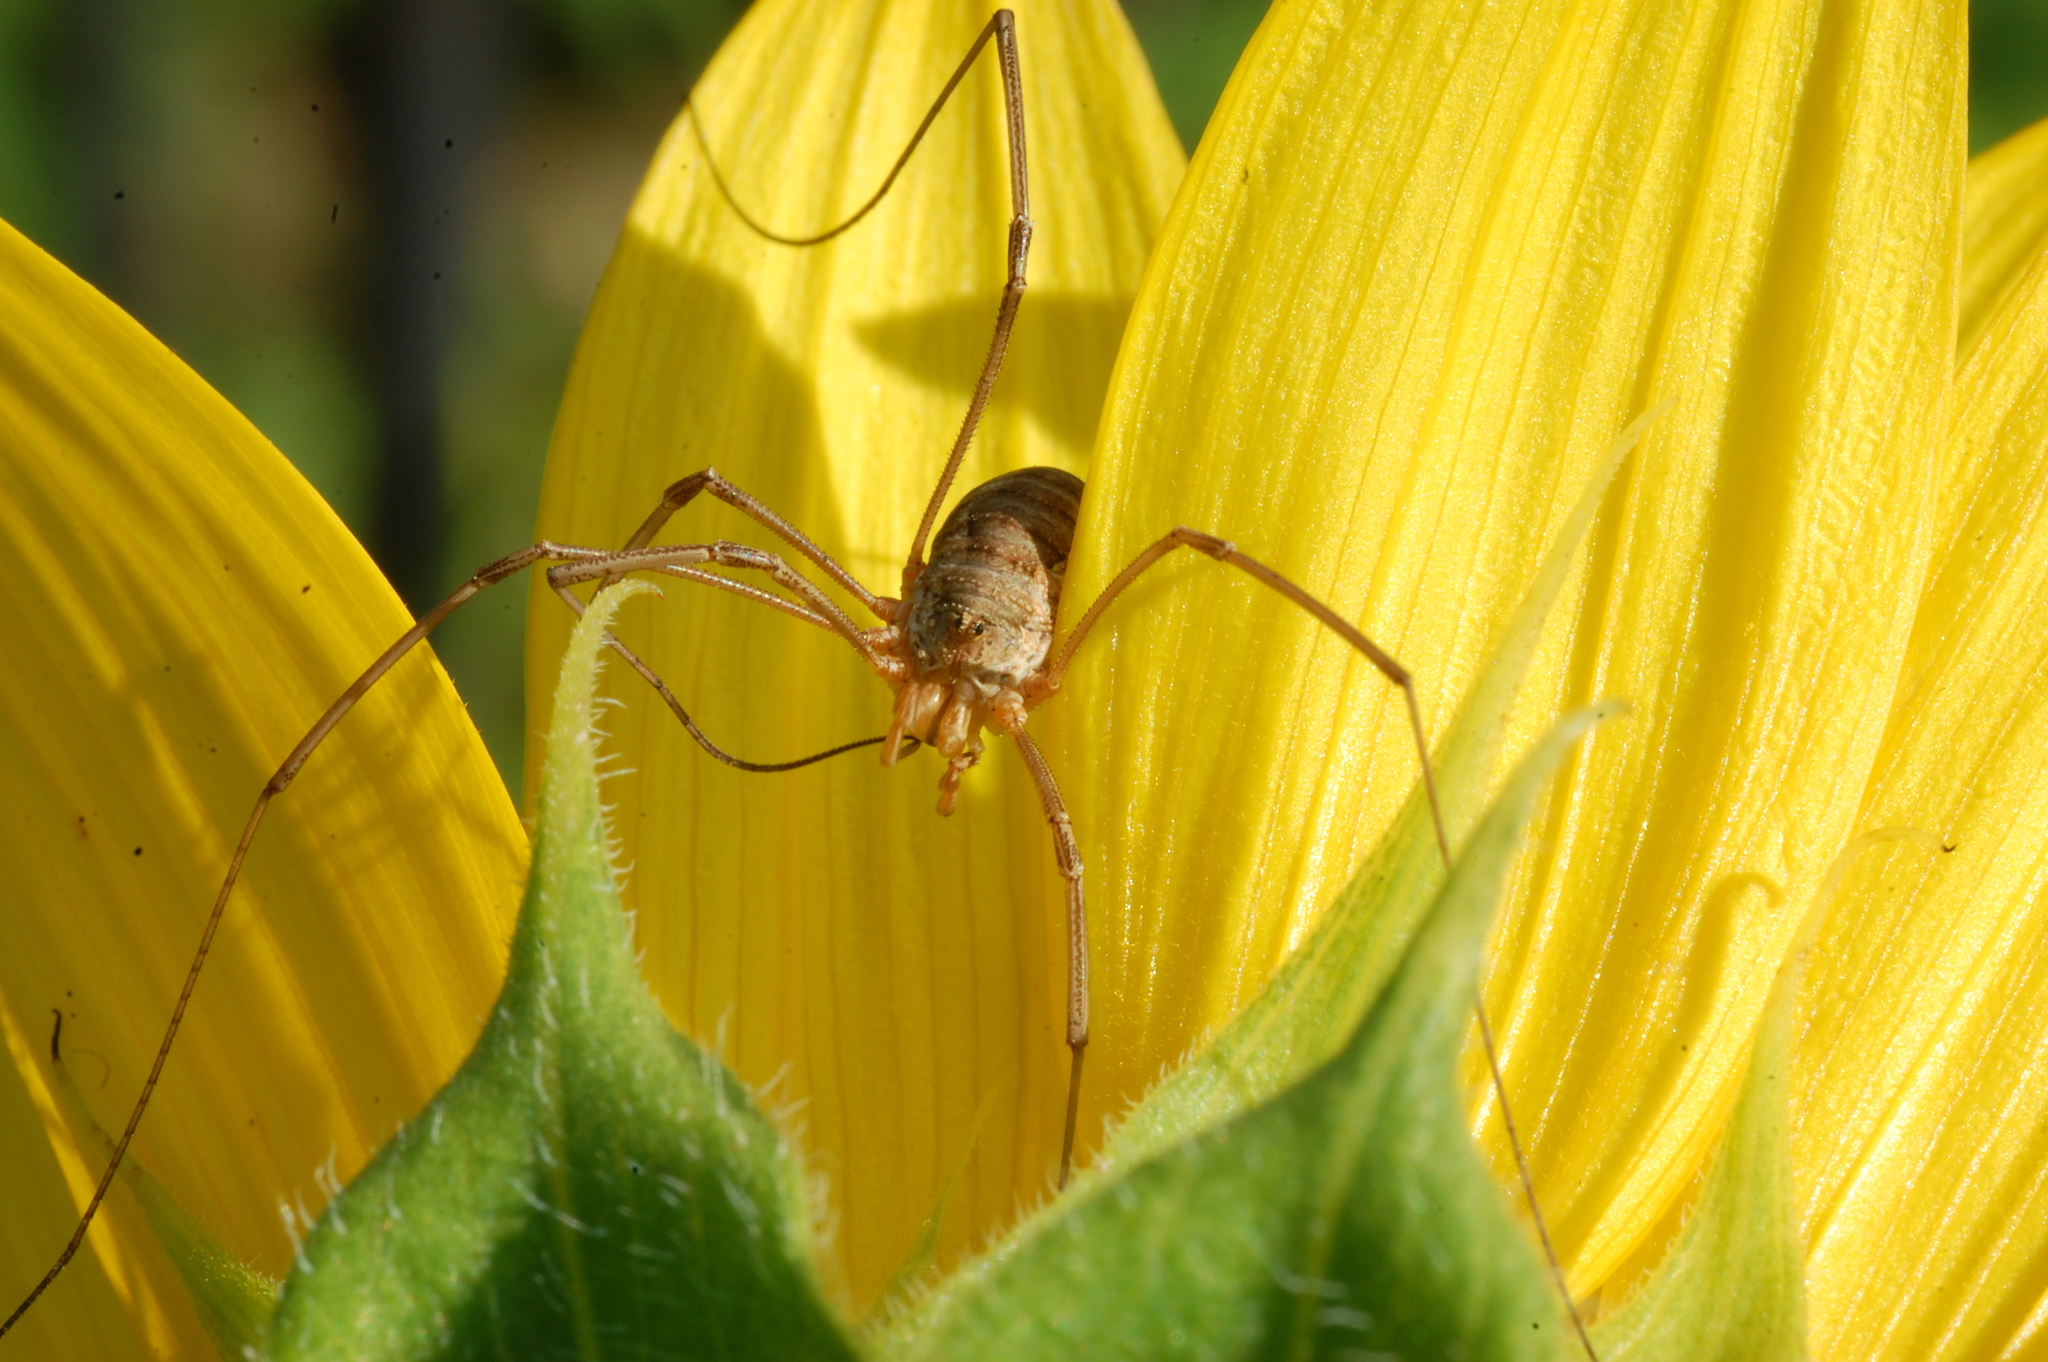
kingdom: Animalia
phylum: Arthropoda
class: Arachnida
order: Opiliones
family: Phalangiidae
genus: Phalangium
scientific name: Phalangium opilio
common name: Daddy longleg
